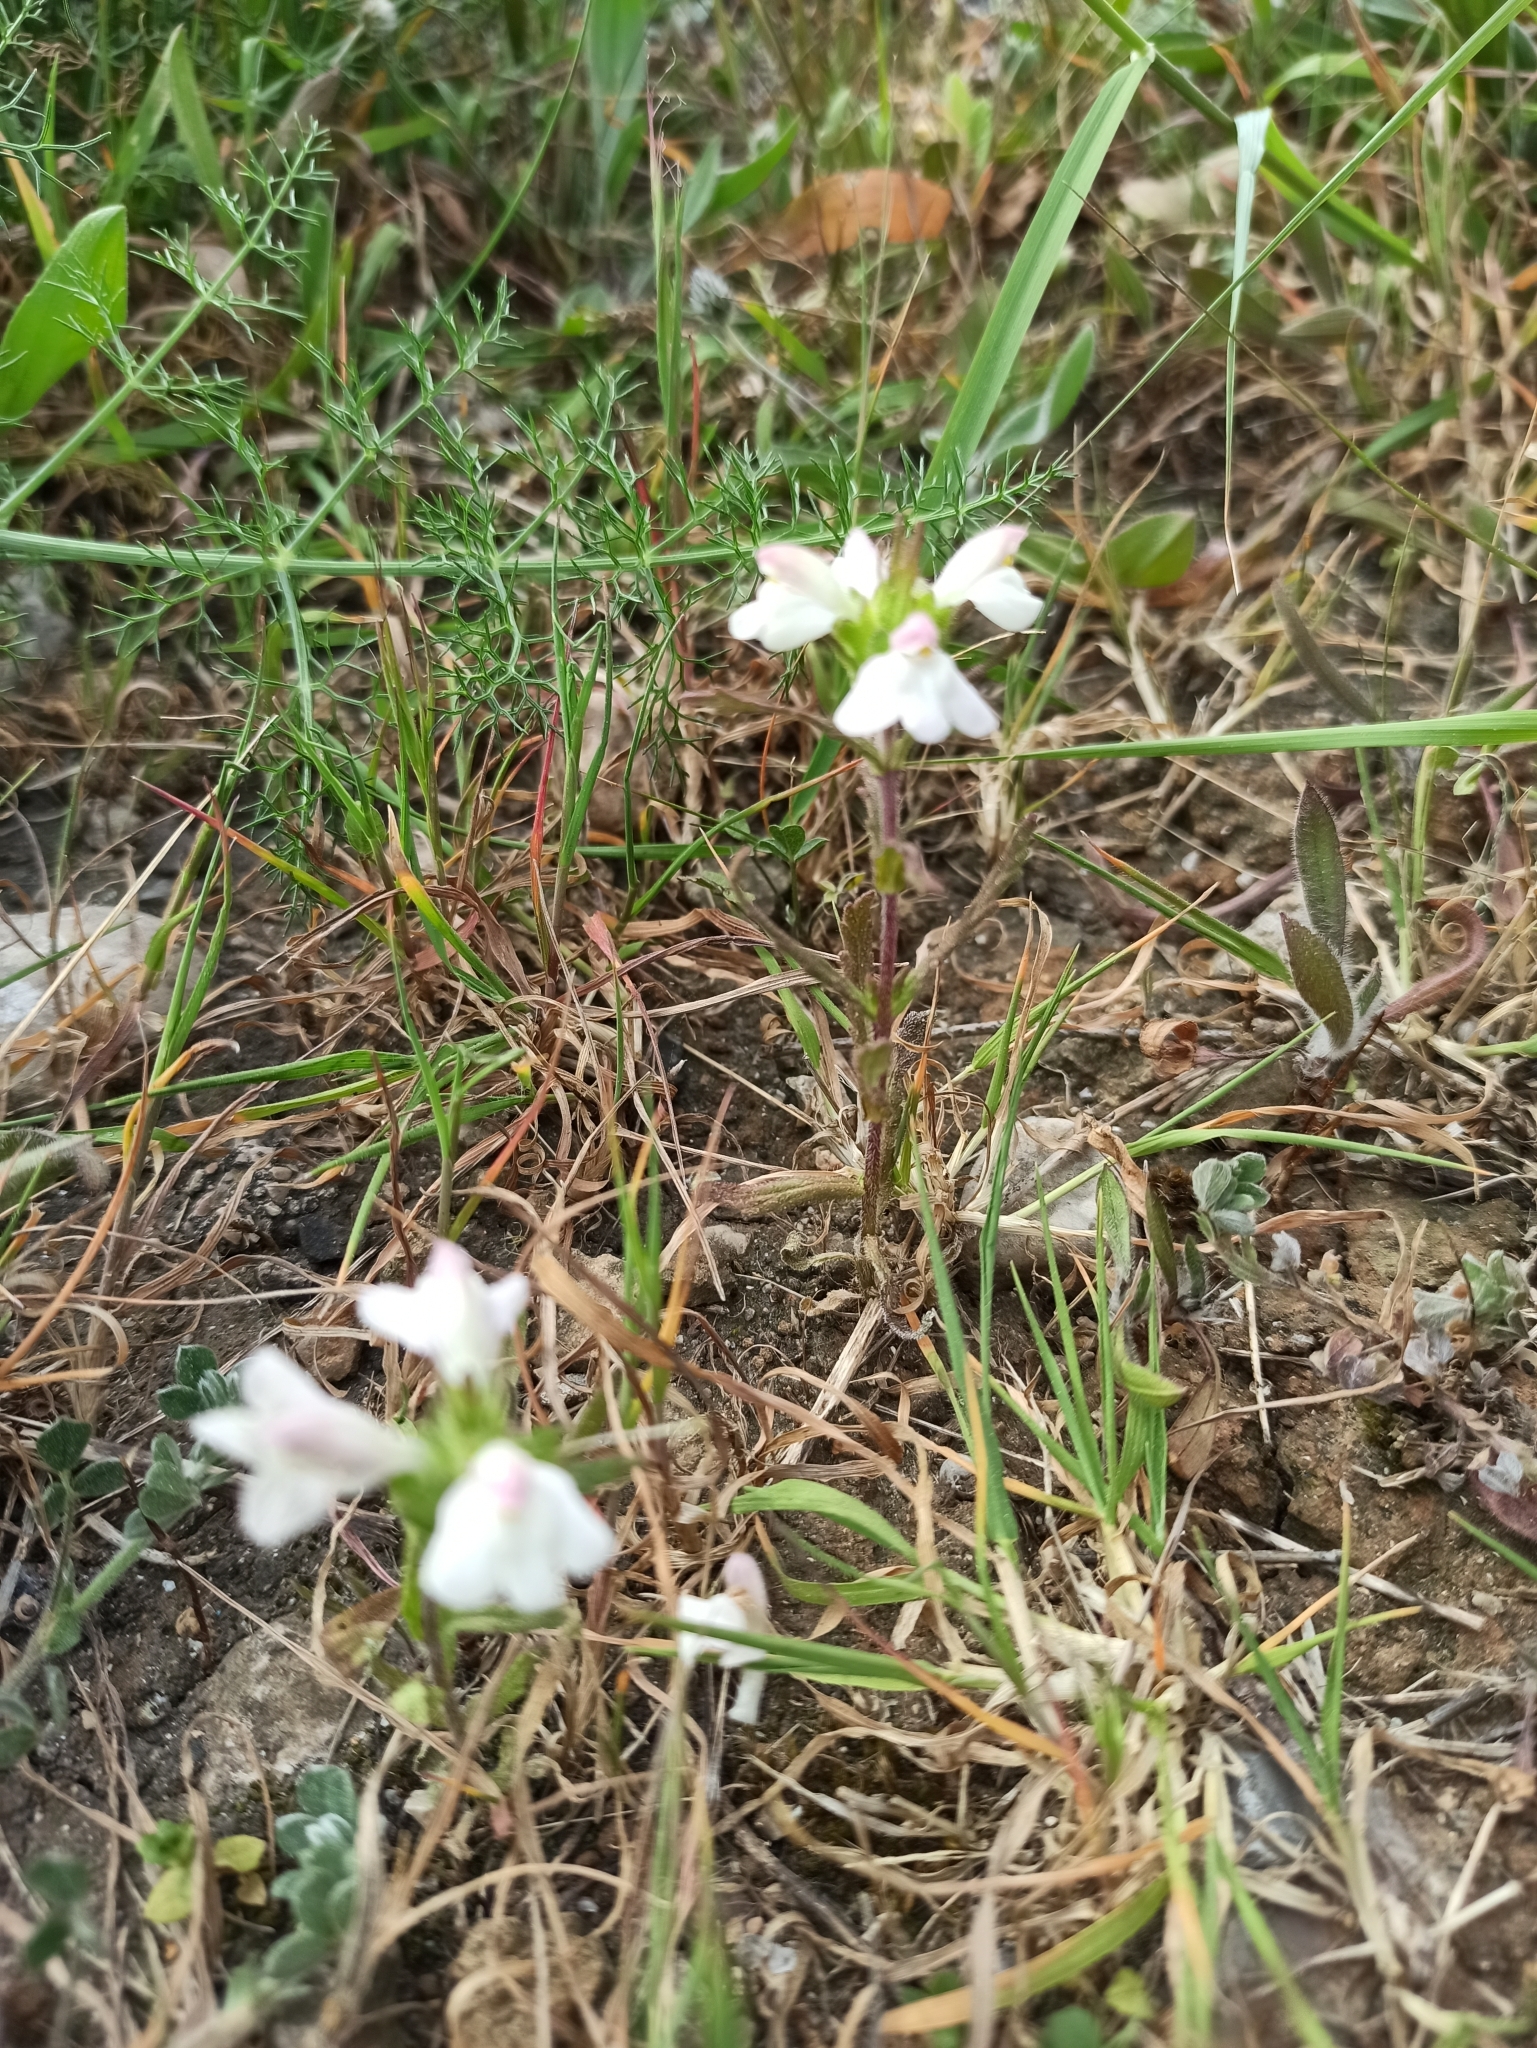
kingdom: Plantae
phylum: Tracheophyta
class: Magnoliopsida
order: Lamiales
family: Orobanchaceae
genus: Bellardia
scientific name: Bellardia trixago
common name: Mediterranean lineseed
